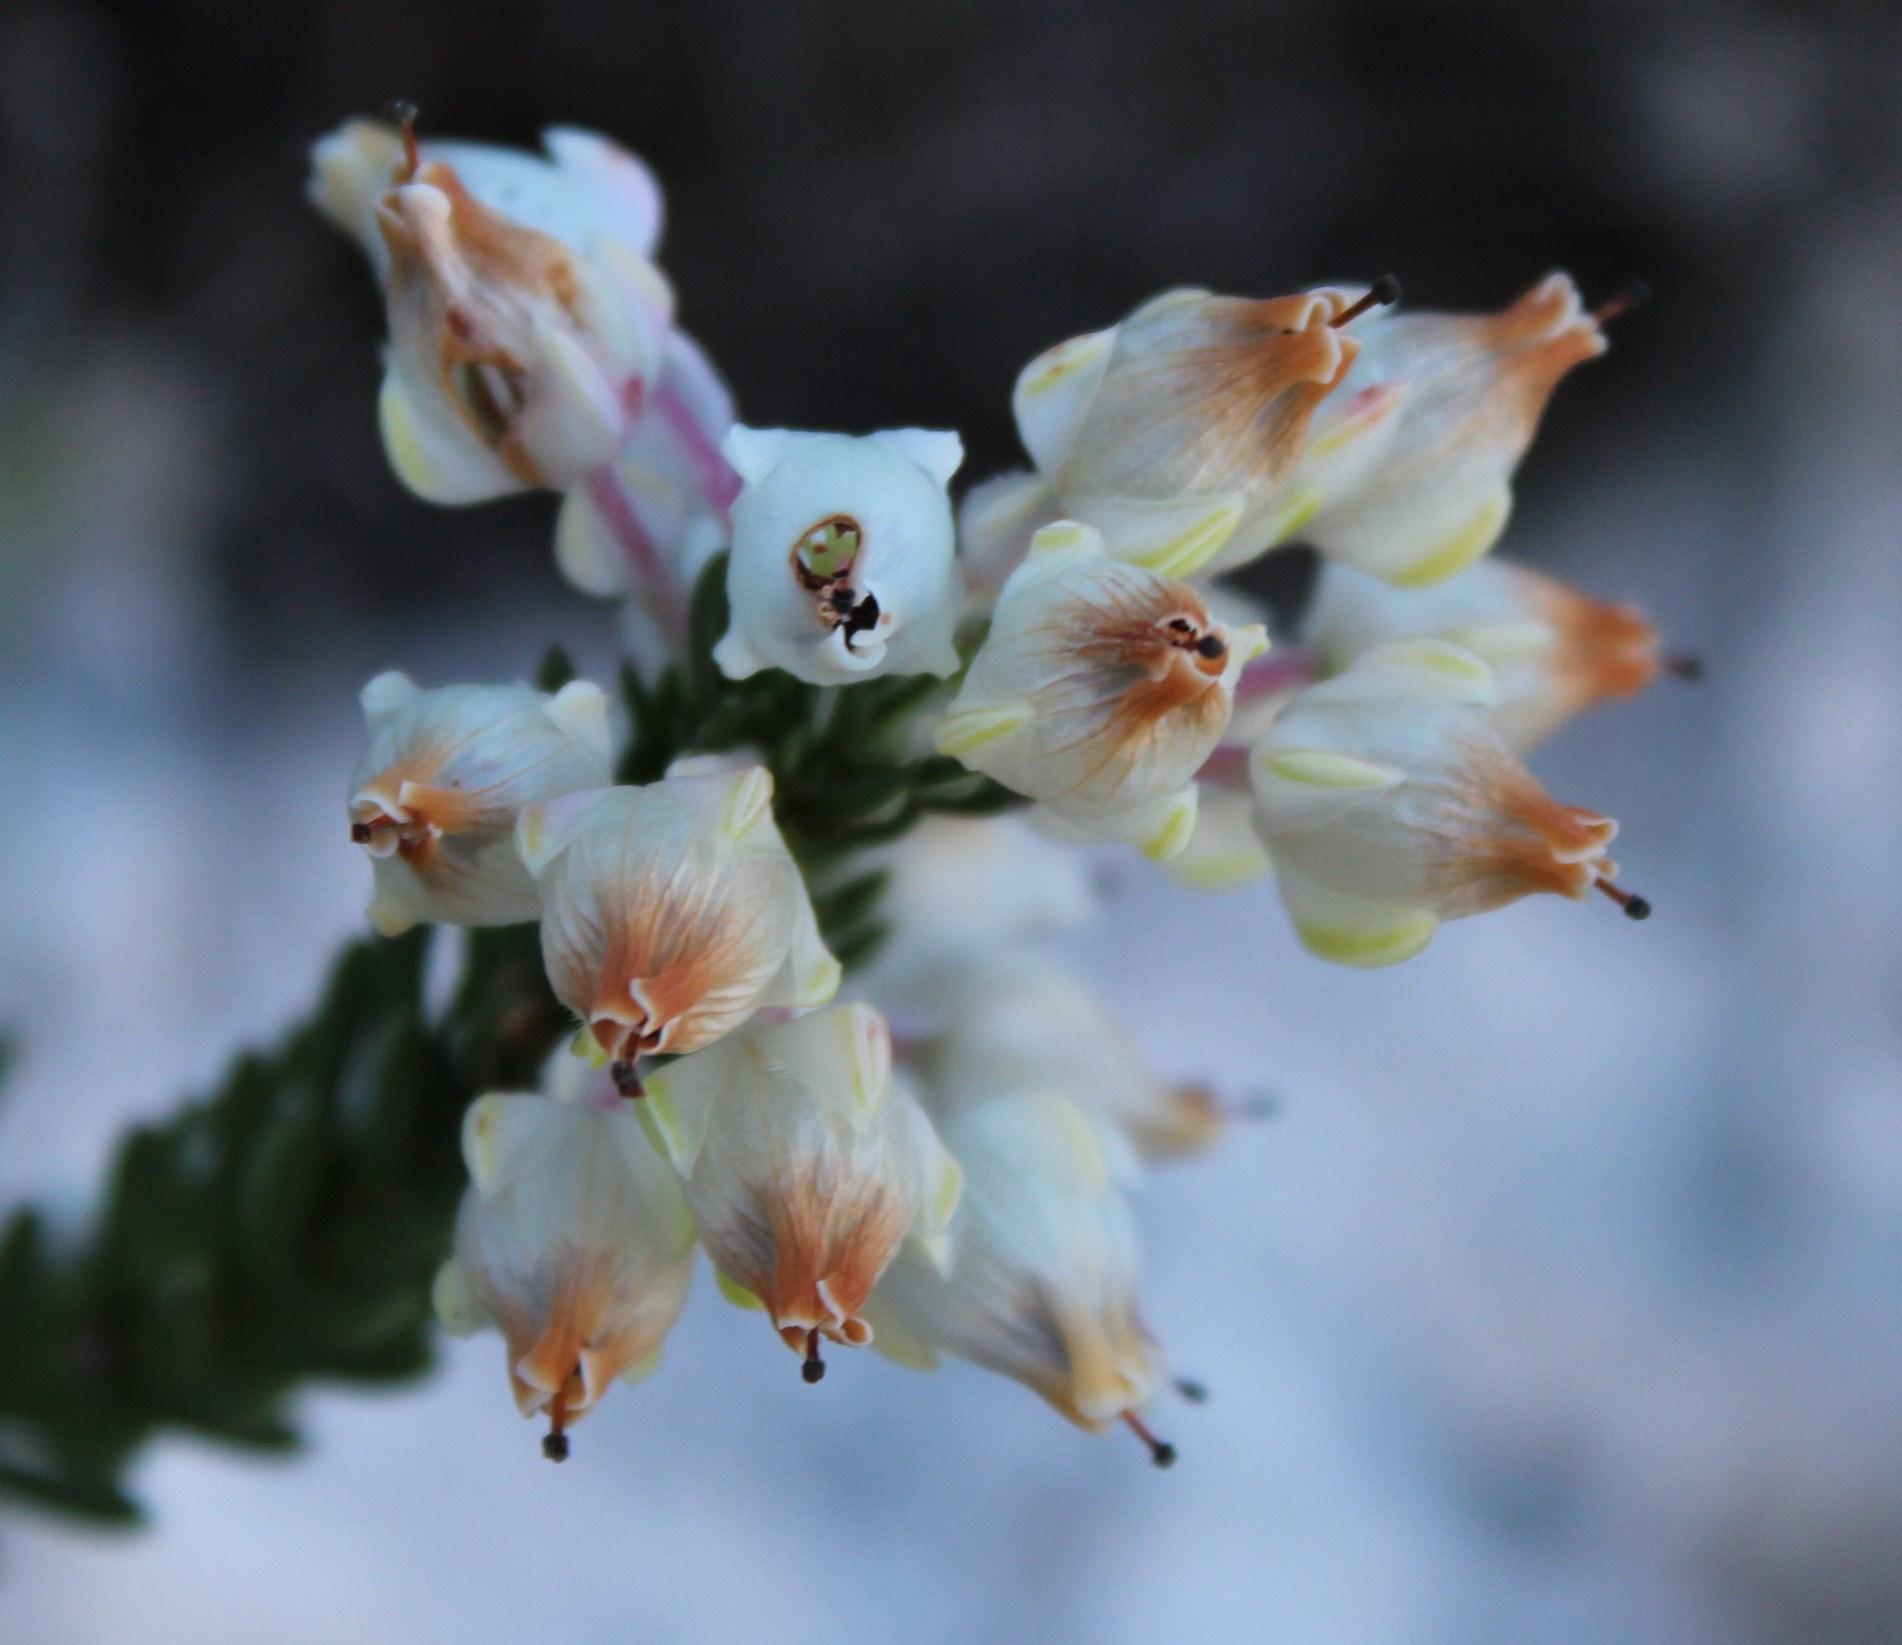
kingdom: Plantae
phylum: Tracheophyta
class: Magnoliopsida
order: Ericales
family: Ericaceae
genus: Erica
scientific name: Erica calcareophila
